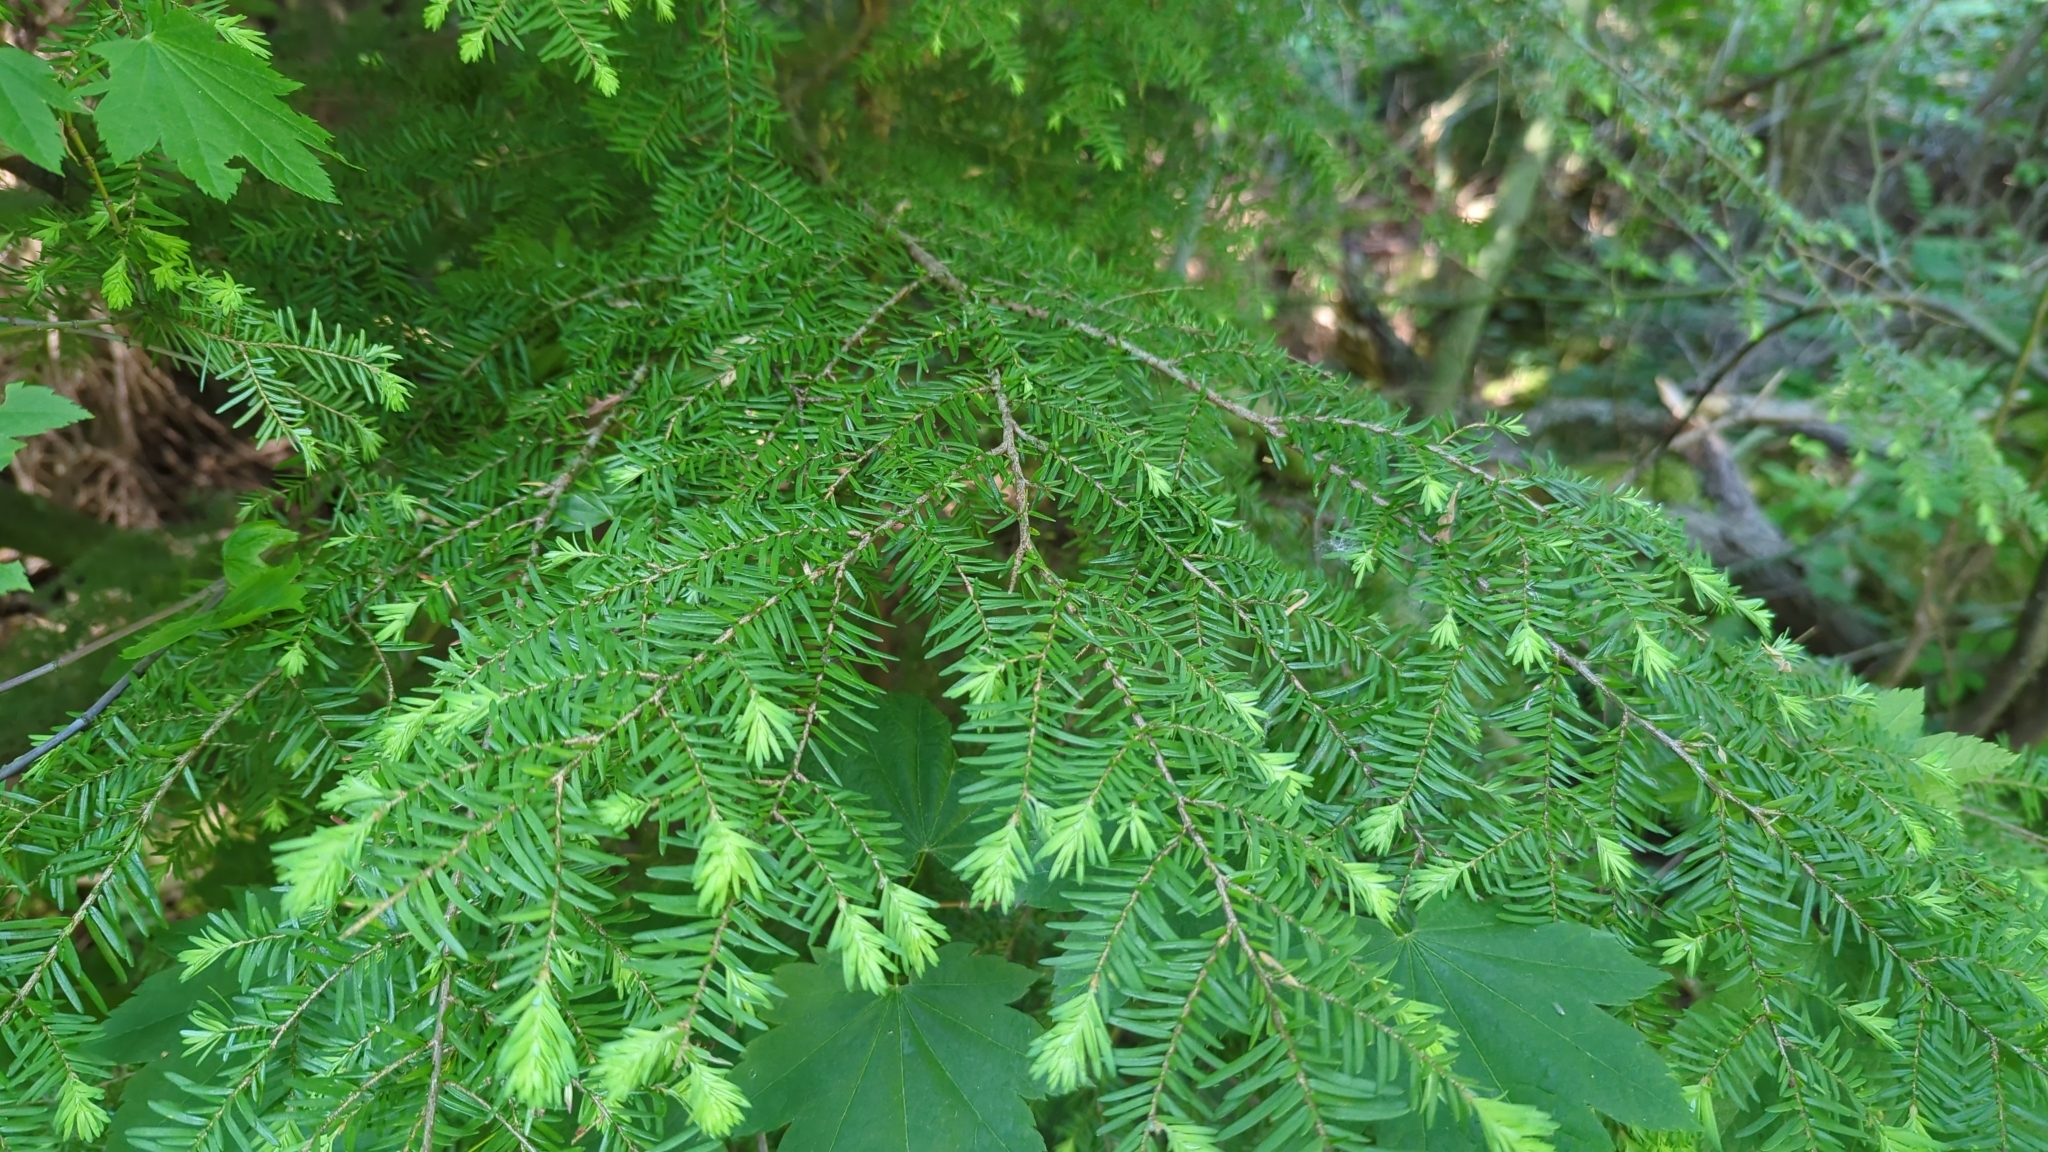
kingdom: Plantae
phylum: Tracheophyta
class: Pinopsida
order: Pinales
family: Pinaceae
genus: Tsuga
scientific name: Tsuga heterophylla
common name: Western hemlock
